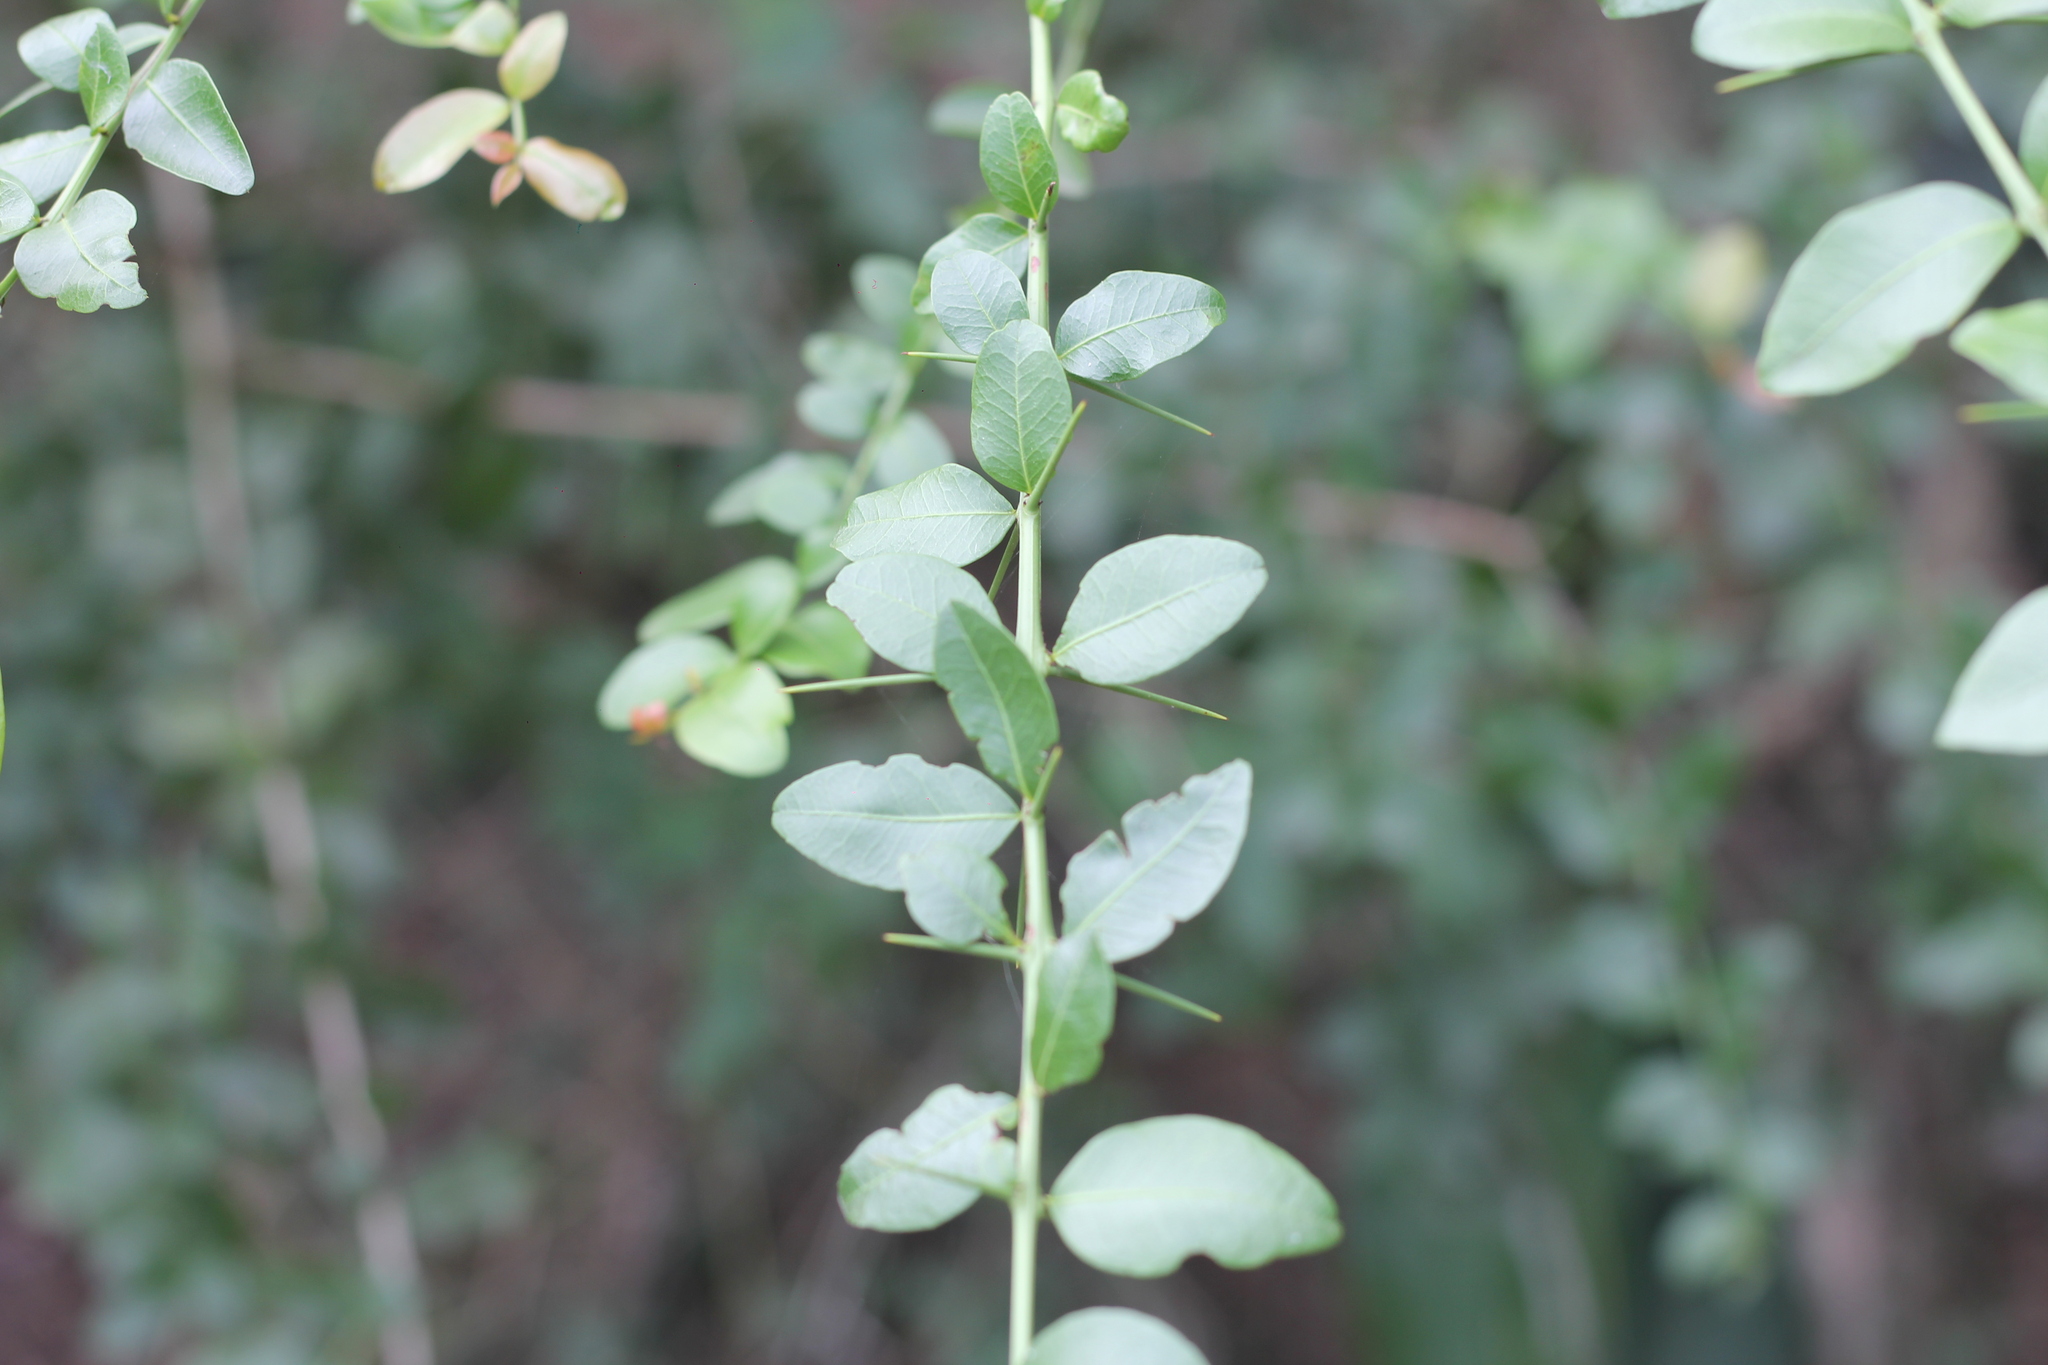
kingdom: Plantae
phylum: Tracheophyta
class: Magnoliopsida
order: Rosales
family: Rhamnaceae
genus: Scutia
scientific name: Scutia buxifolia
